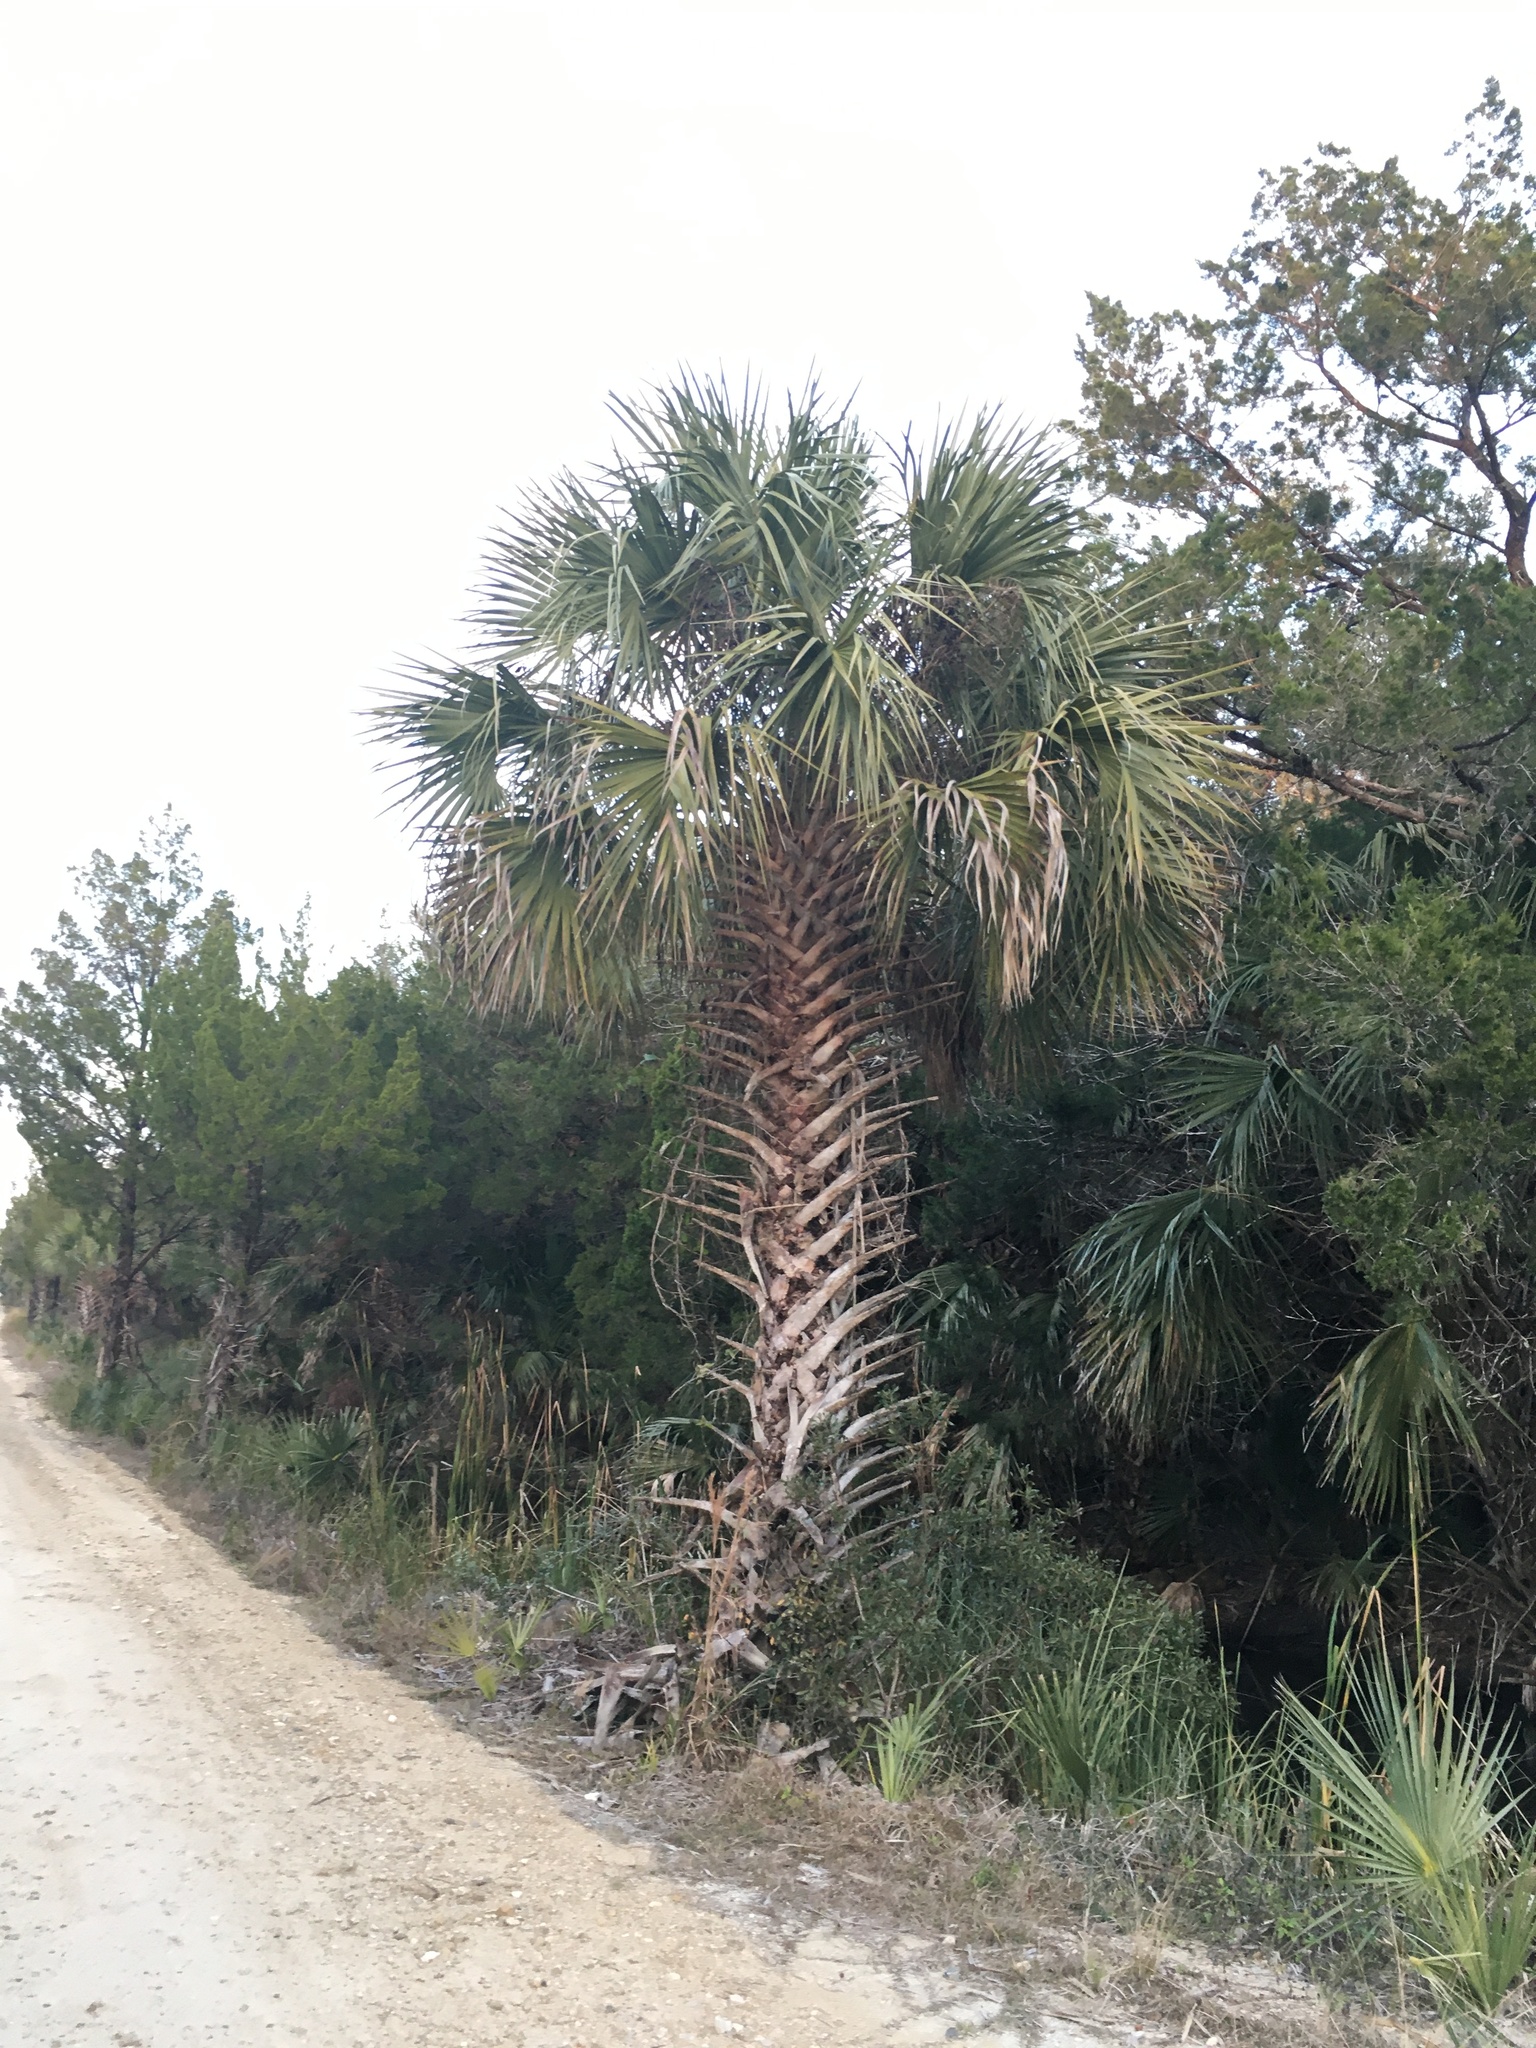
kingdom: Plantae
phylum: Tracheophyta
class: Liliopsida
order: Arecales
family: Arecaceae
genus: Sabal
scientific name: Sabal palmetto
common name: Blue palmetto
